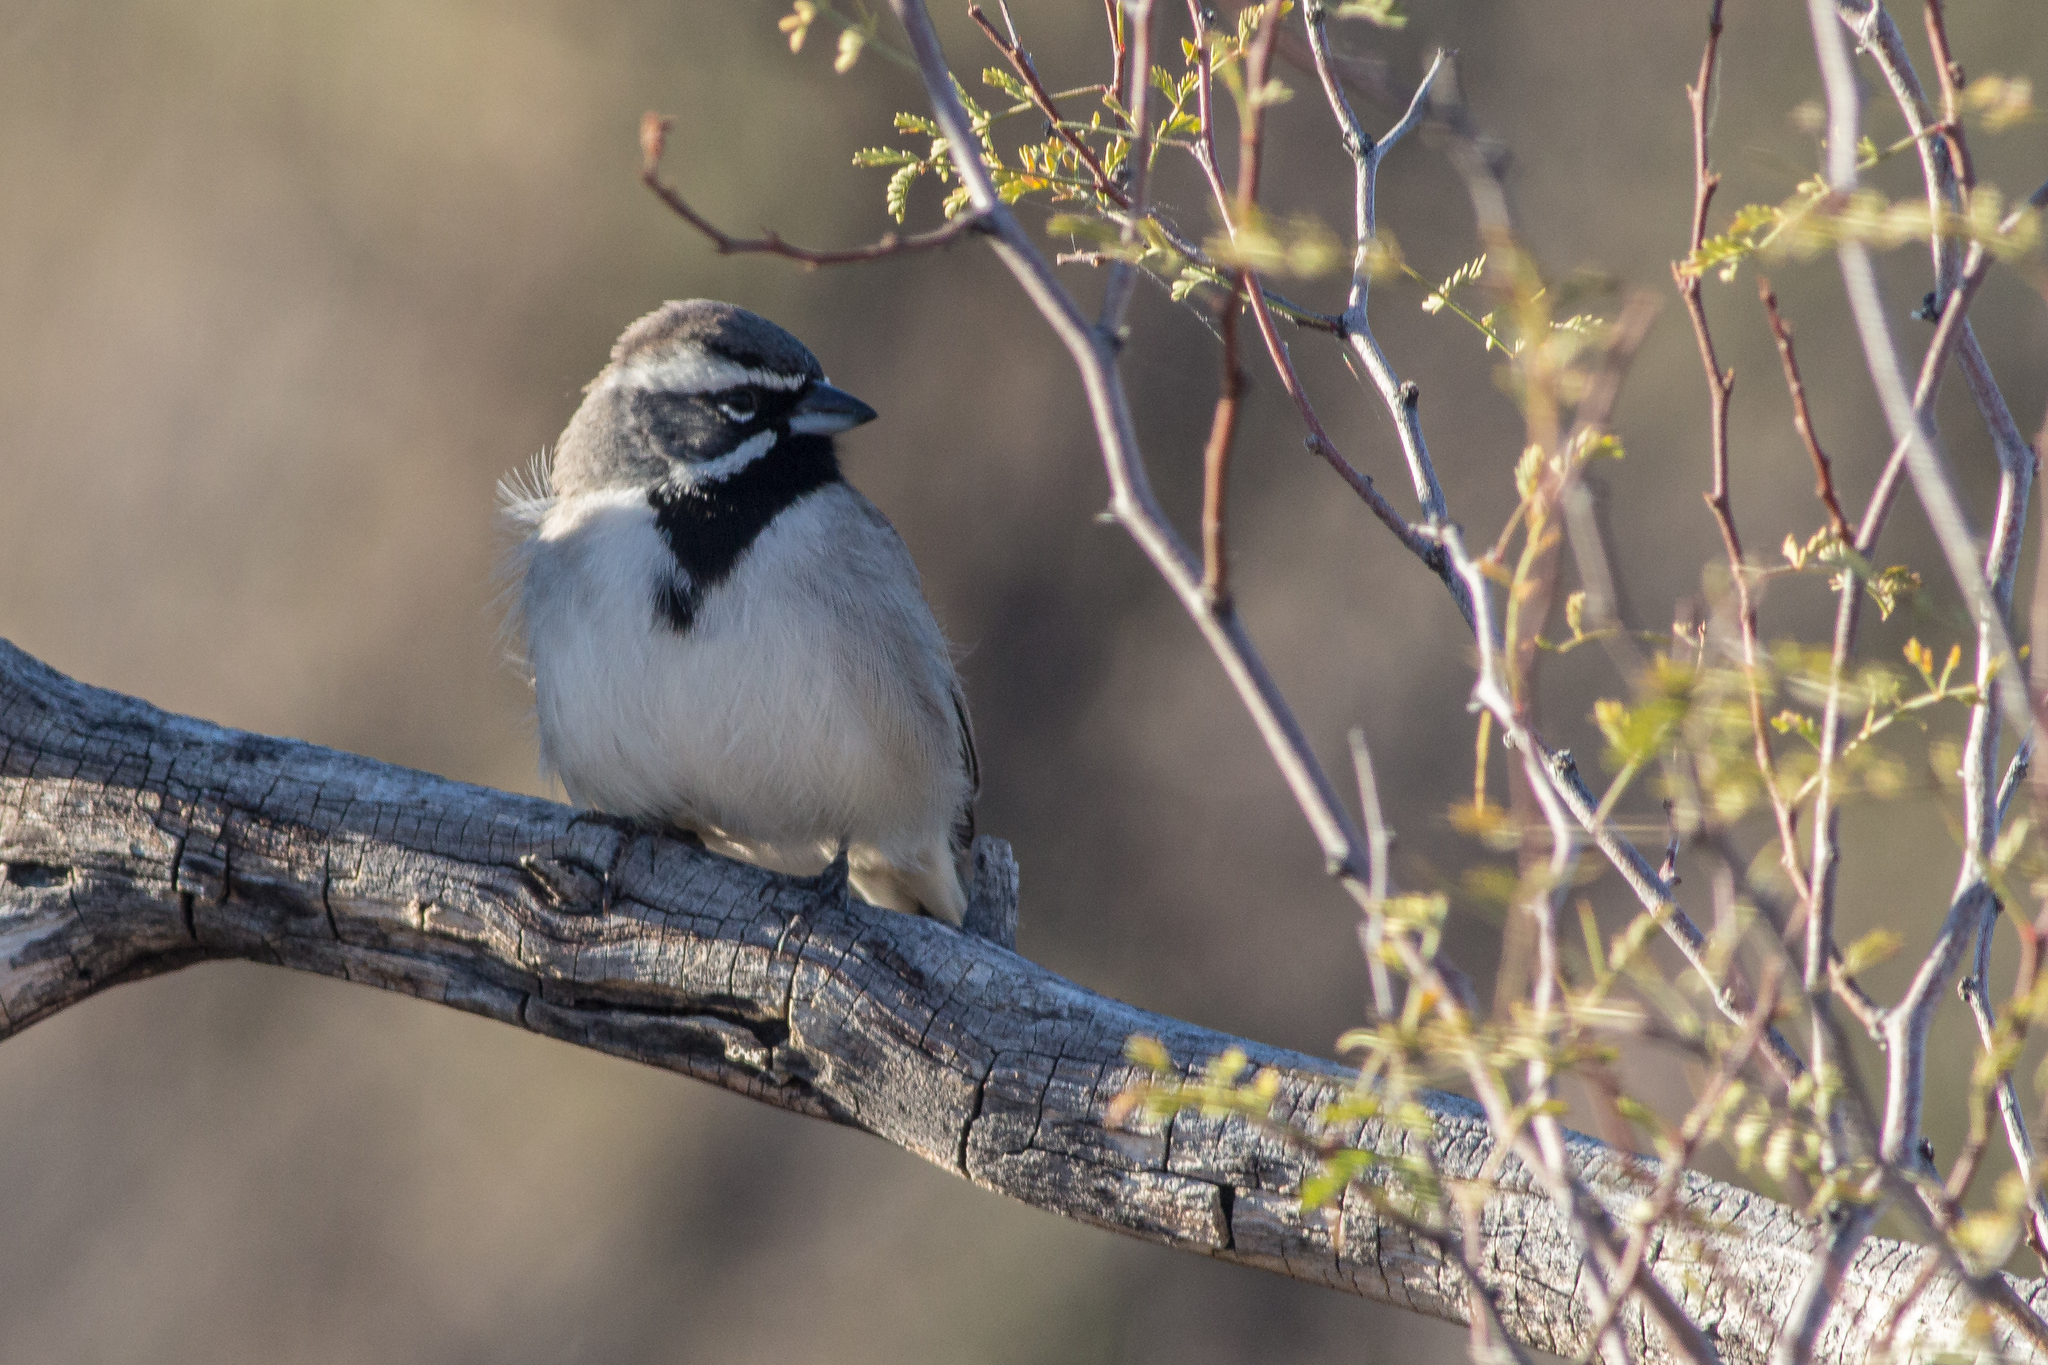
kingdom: Animalia
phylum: Chordata
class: Aves
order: Passeriformes
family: Passerellidae
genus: Amphispiza
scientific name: Amphispiza bilineata
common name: Black-throated sparrow
